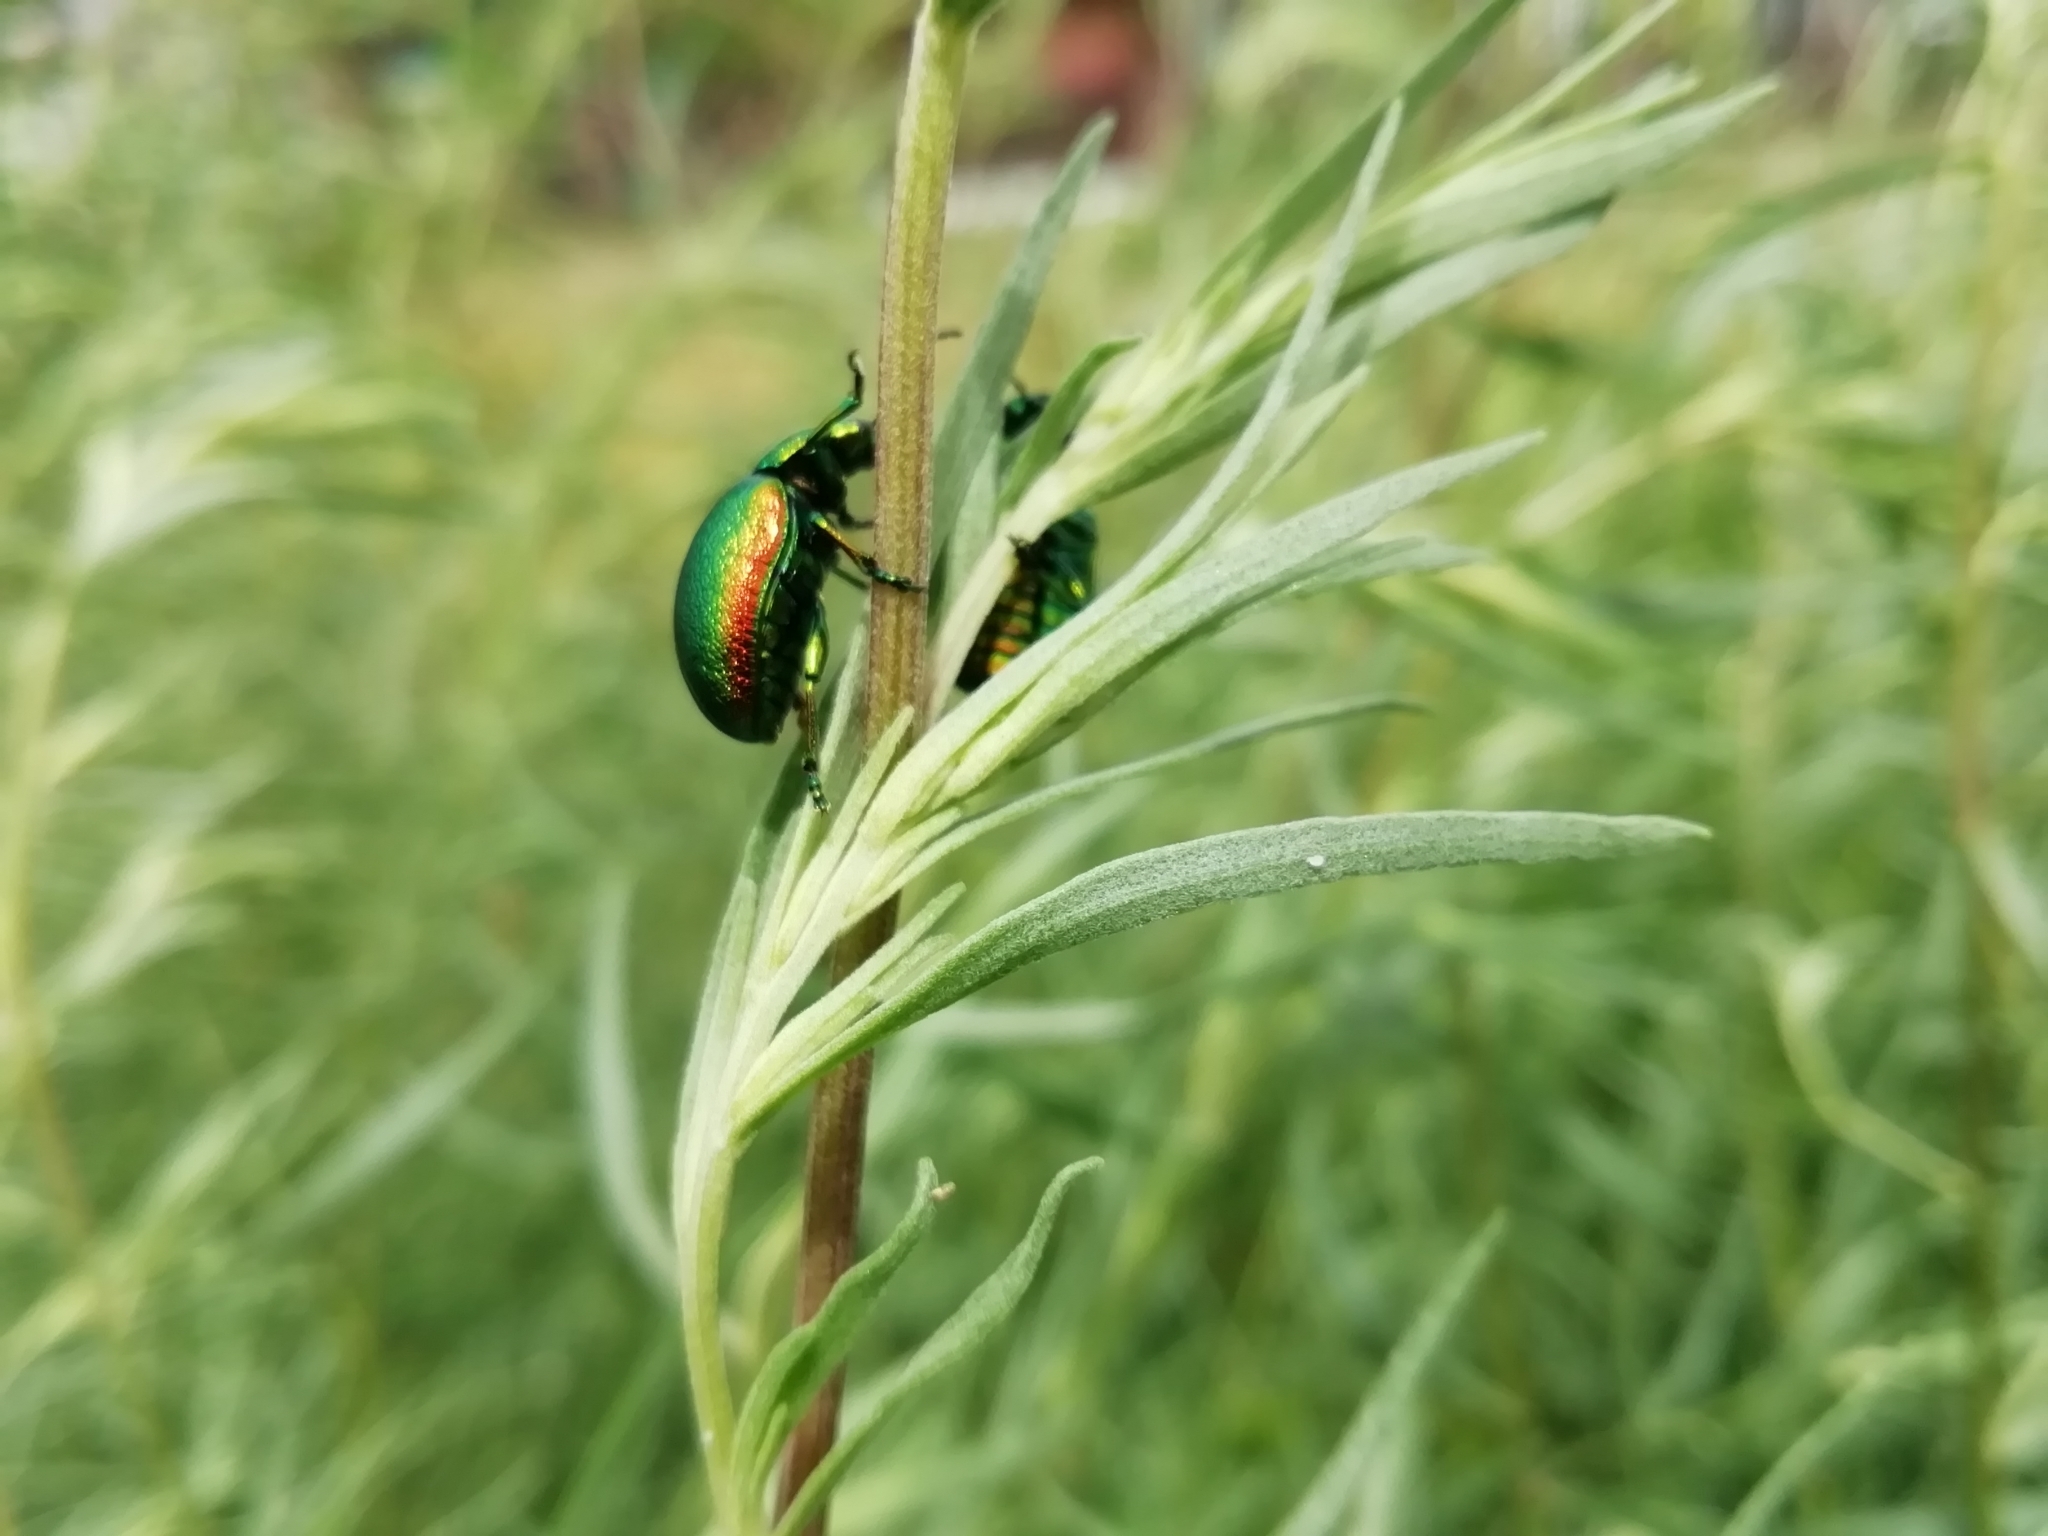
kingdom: Animalia
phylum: Arthropoda
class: Insecta
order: Coleoptera
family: Chrysomelidae
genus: Chrysolina
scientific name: Chrysolina graminis
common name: Tansey beetle
